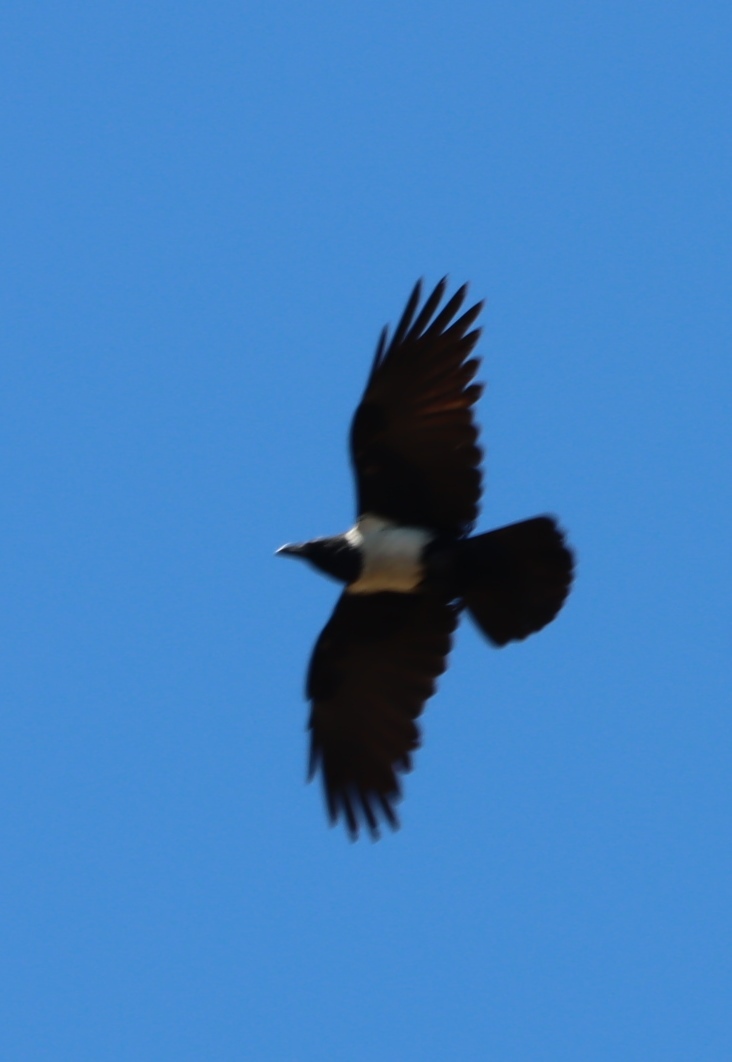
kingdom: Animalia
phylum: Chordata
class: Aves
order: Passeriformes
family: Corvidae
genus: Corvus
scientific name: Corvus albus
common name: Pied crow
